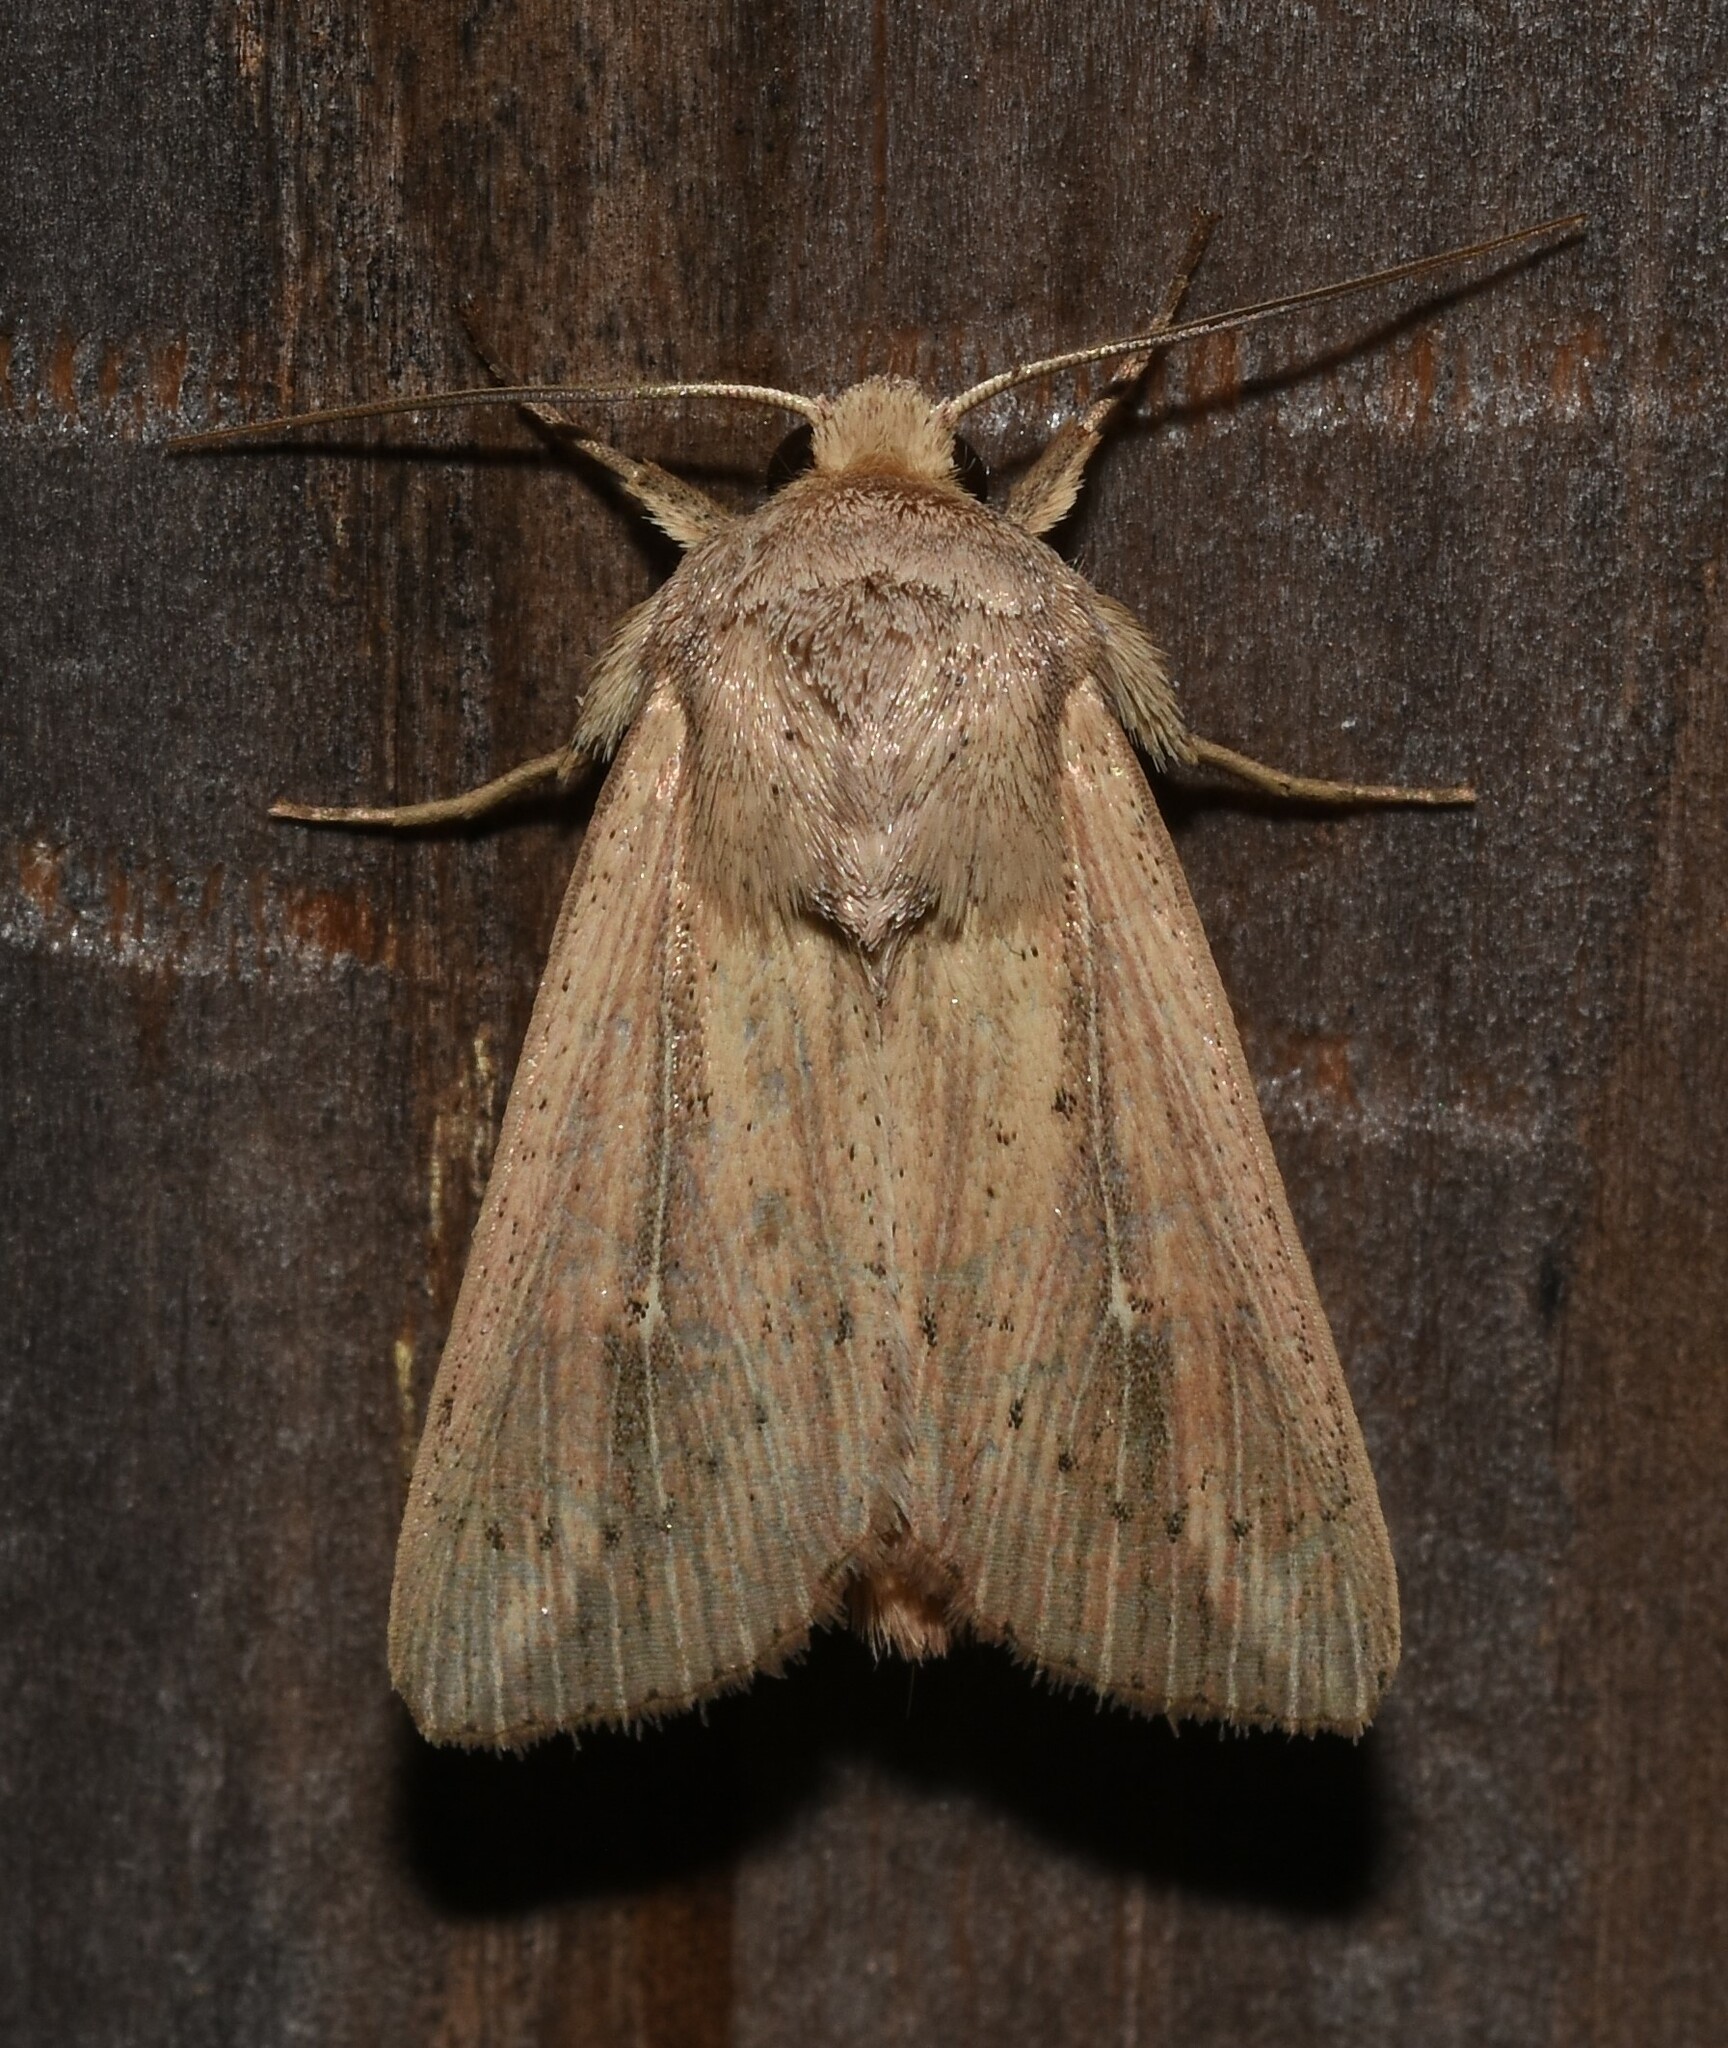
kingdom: Animalia
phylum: Arthropoda
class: Insecta
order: Lepidoptera
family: Noctuidae
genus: Leucania
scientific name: Leucania linda
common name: Linda's wainscot
